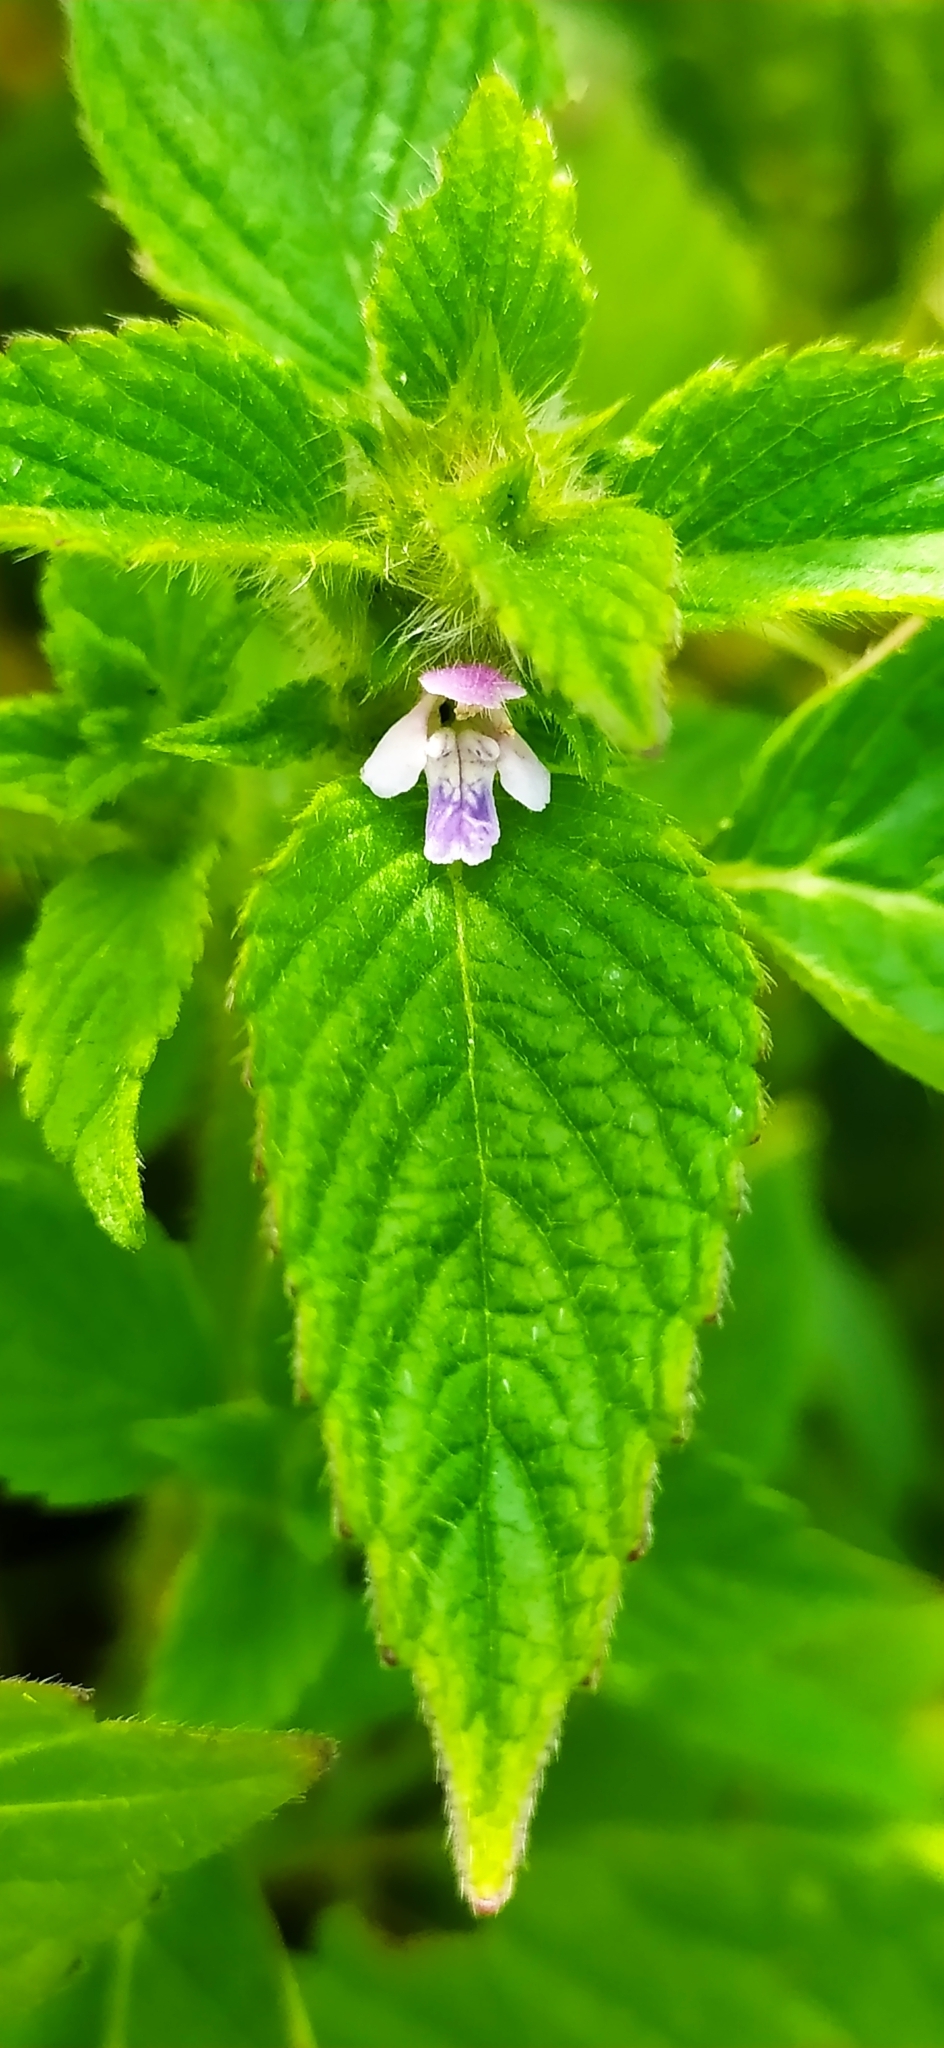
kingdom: Plantae
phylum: Tracheophyta
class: Magnoliopsida
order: Lamiales
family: Lamiaceae
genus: Galeopsis
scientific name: Galeopsis bifida
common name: Bifid hemp-nettle
